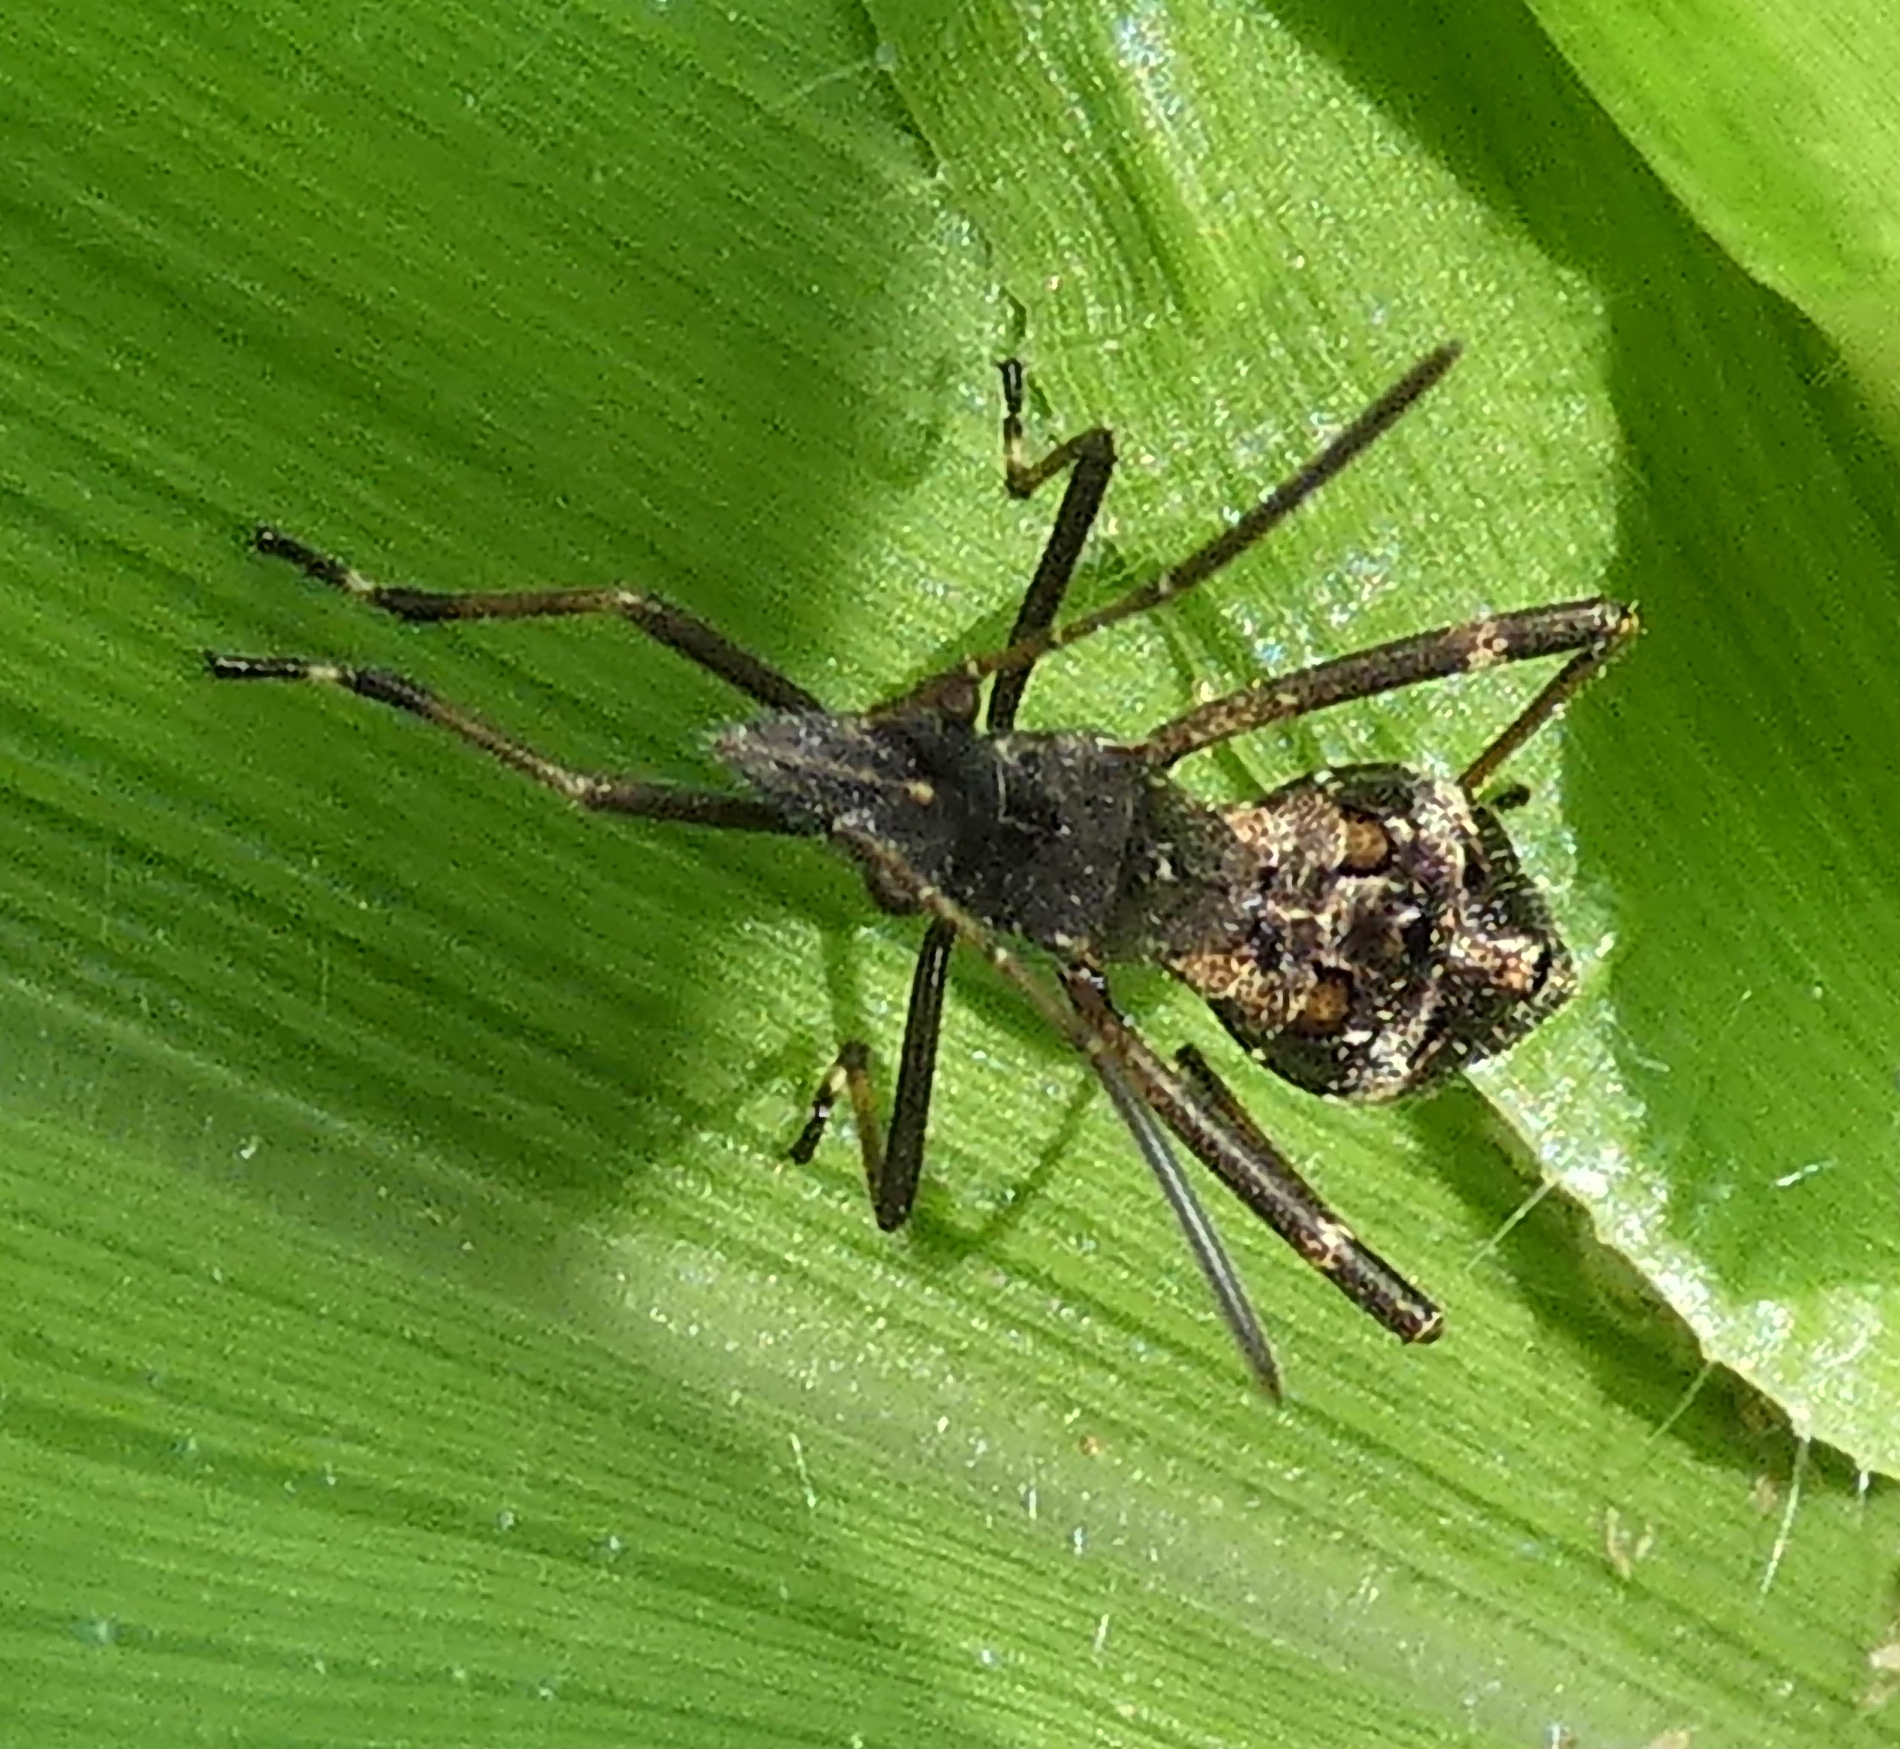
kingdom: Animalia
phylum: Arthropoda
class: Insecta
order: Hemiptera
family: Alydidae
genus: Neomegalotomus
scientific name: Neomegalotomus parvus
